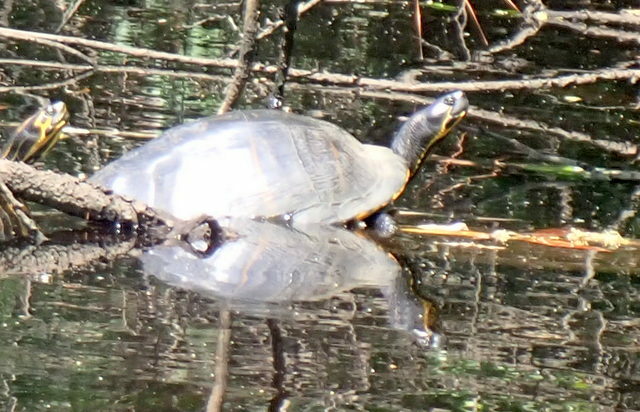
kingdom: Animalia
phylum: Chordata
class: Testudines
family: Emydidae
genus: Pseudemys
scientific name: Pseudemys concinna
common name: Eastern river cooter
